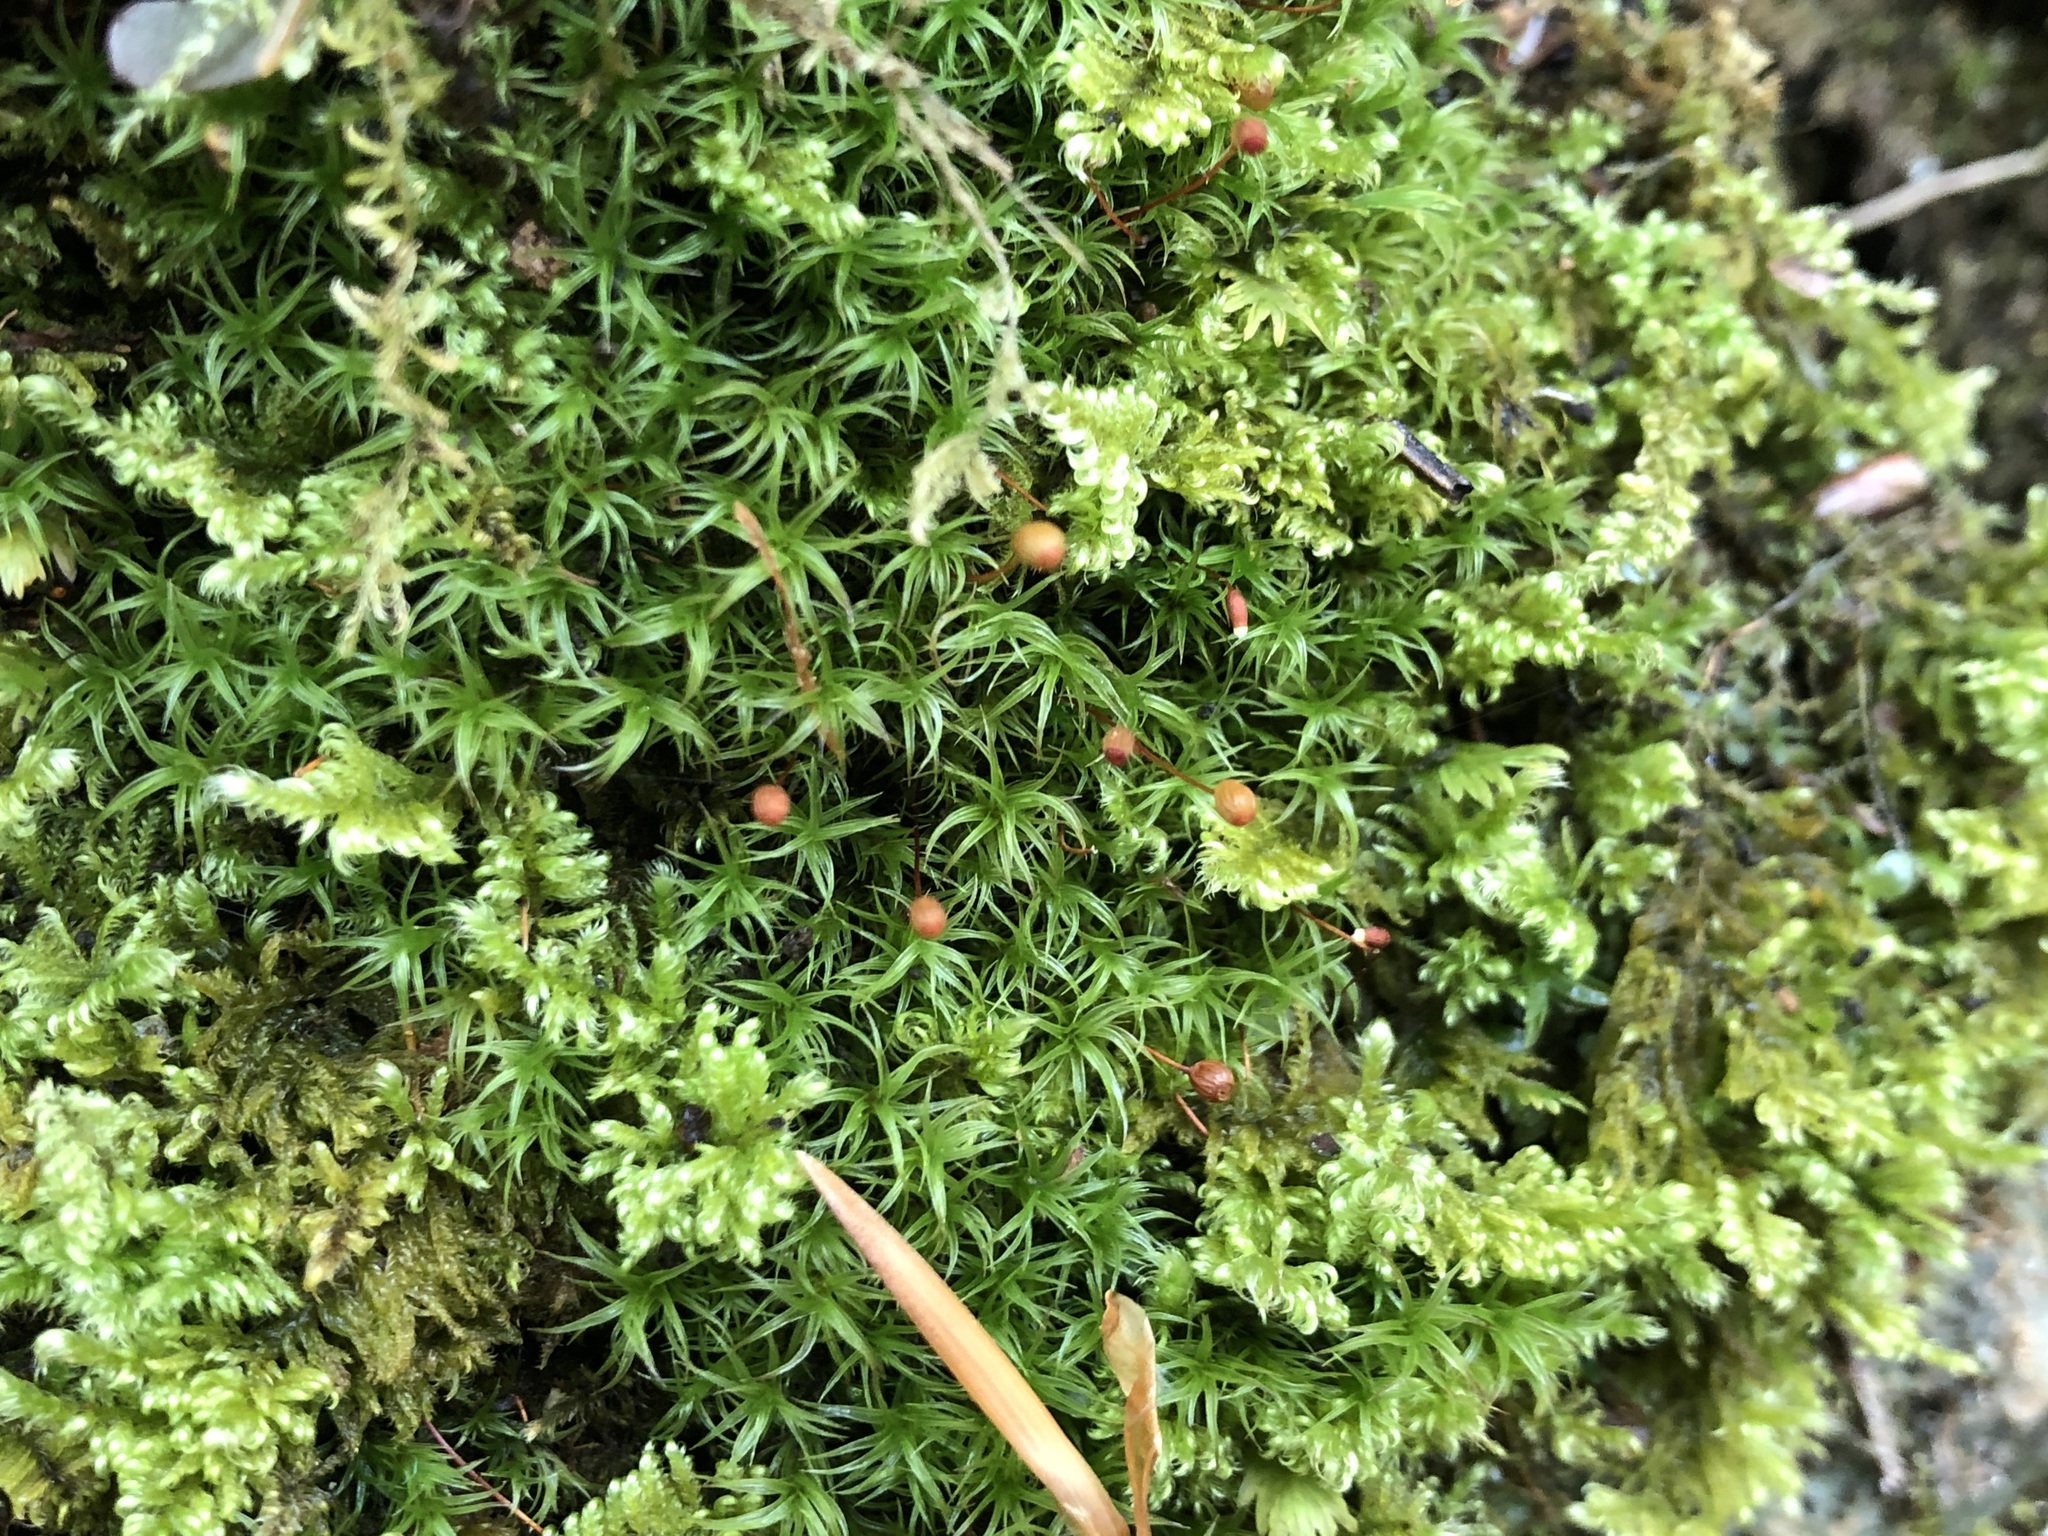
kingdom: Plantae
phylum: Bryophyta
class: Bryopsida
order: Bartramiales
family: Bartramiaceae
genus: Plagiopus
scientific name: Plagiopus oederianus
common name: Oeder's apple moss
